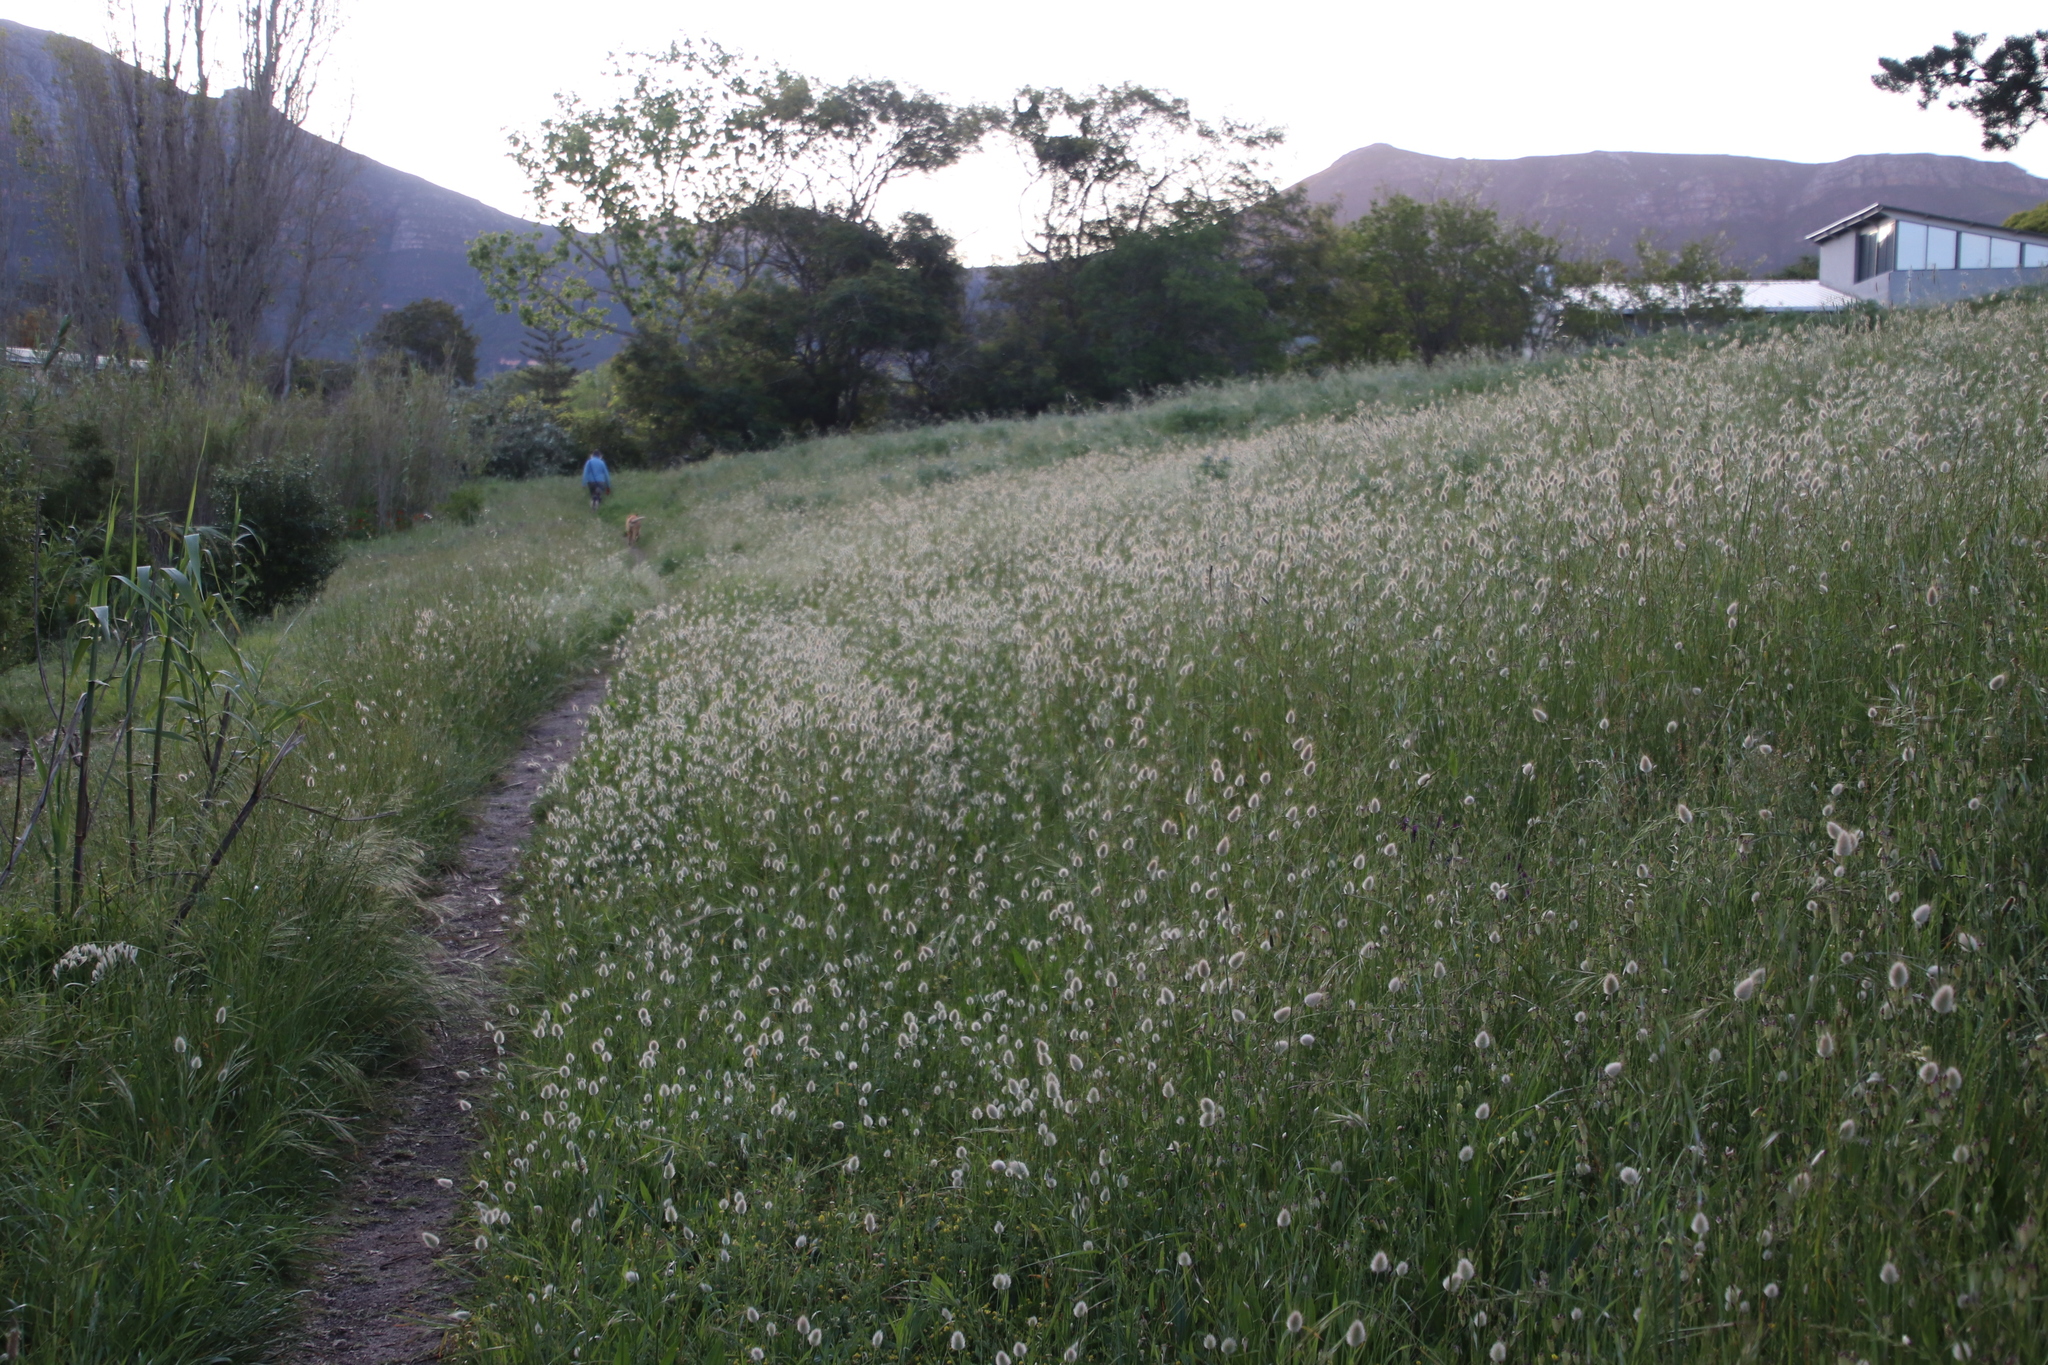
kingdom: Plantae
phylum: Tracheophyta
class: Liliopsida
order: Poales
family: Poaceae
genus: Lagurus
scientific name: Lagurus ovatus
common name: Hare's-tail
